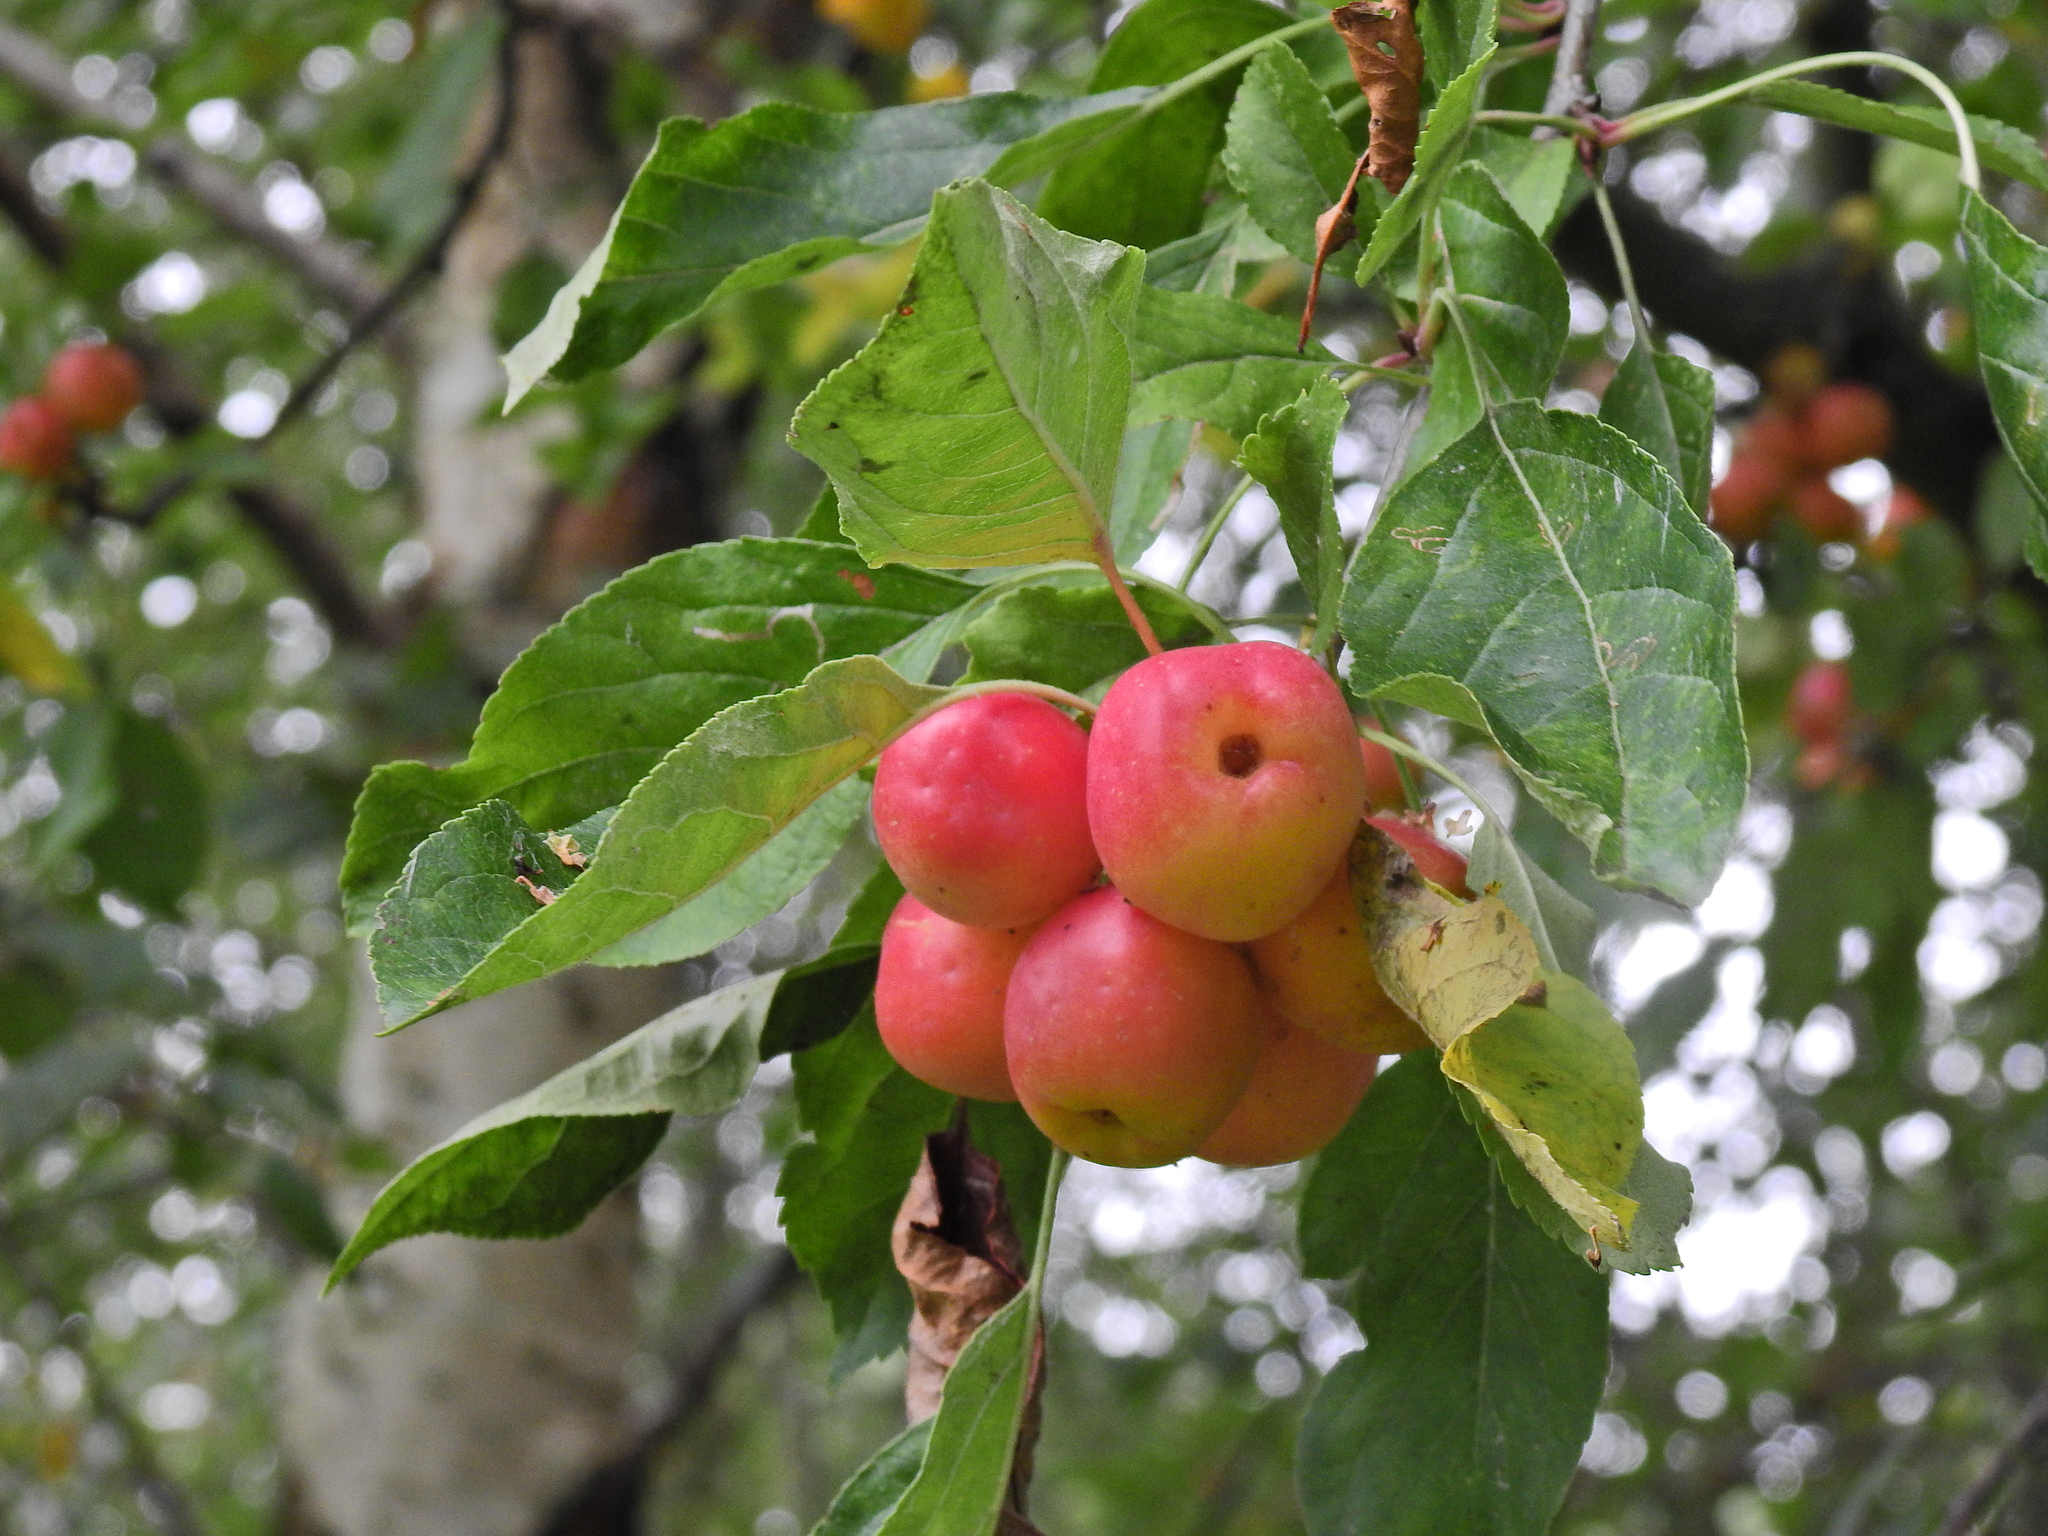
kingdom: Plantae
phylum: Tracheophyta
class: Magnoliopsida
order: Rosales
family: Rosaceae
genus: Malus
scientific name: Malus sylvestris
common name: Crab apple
